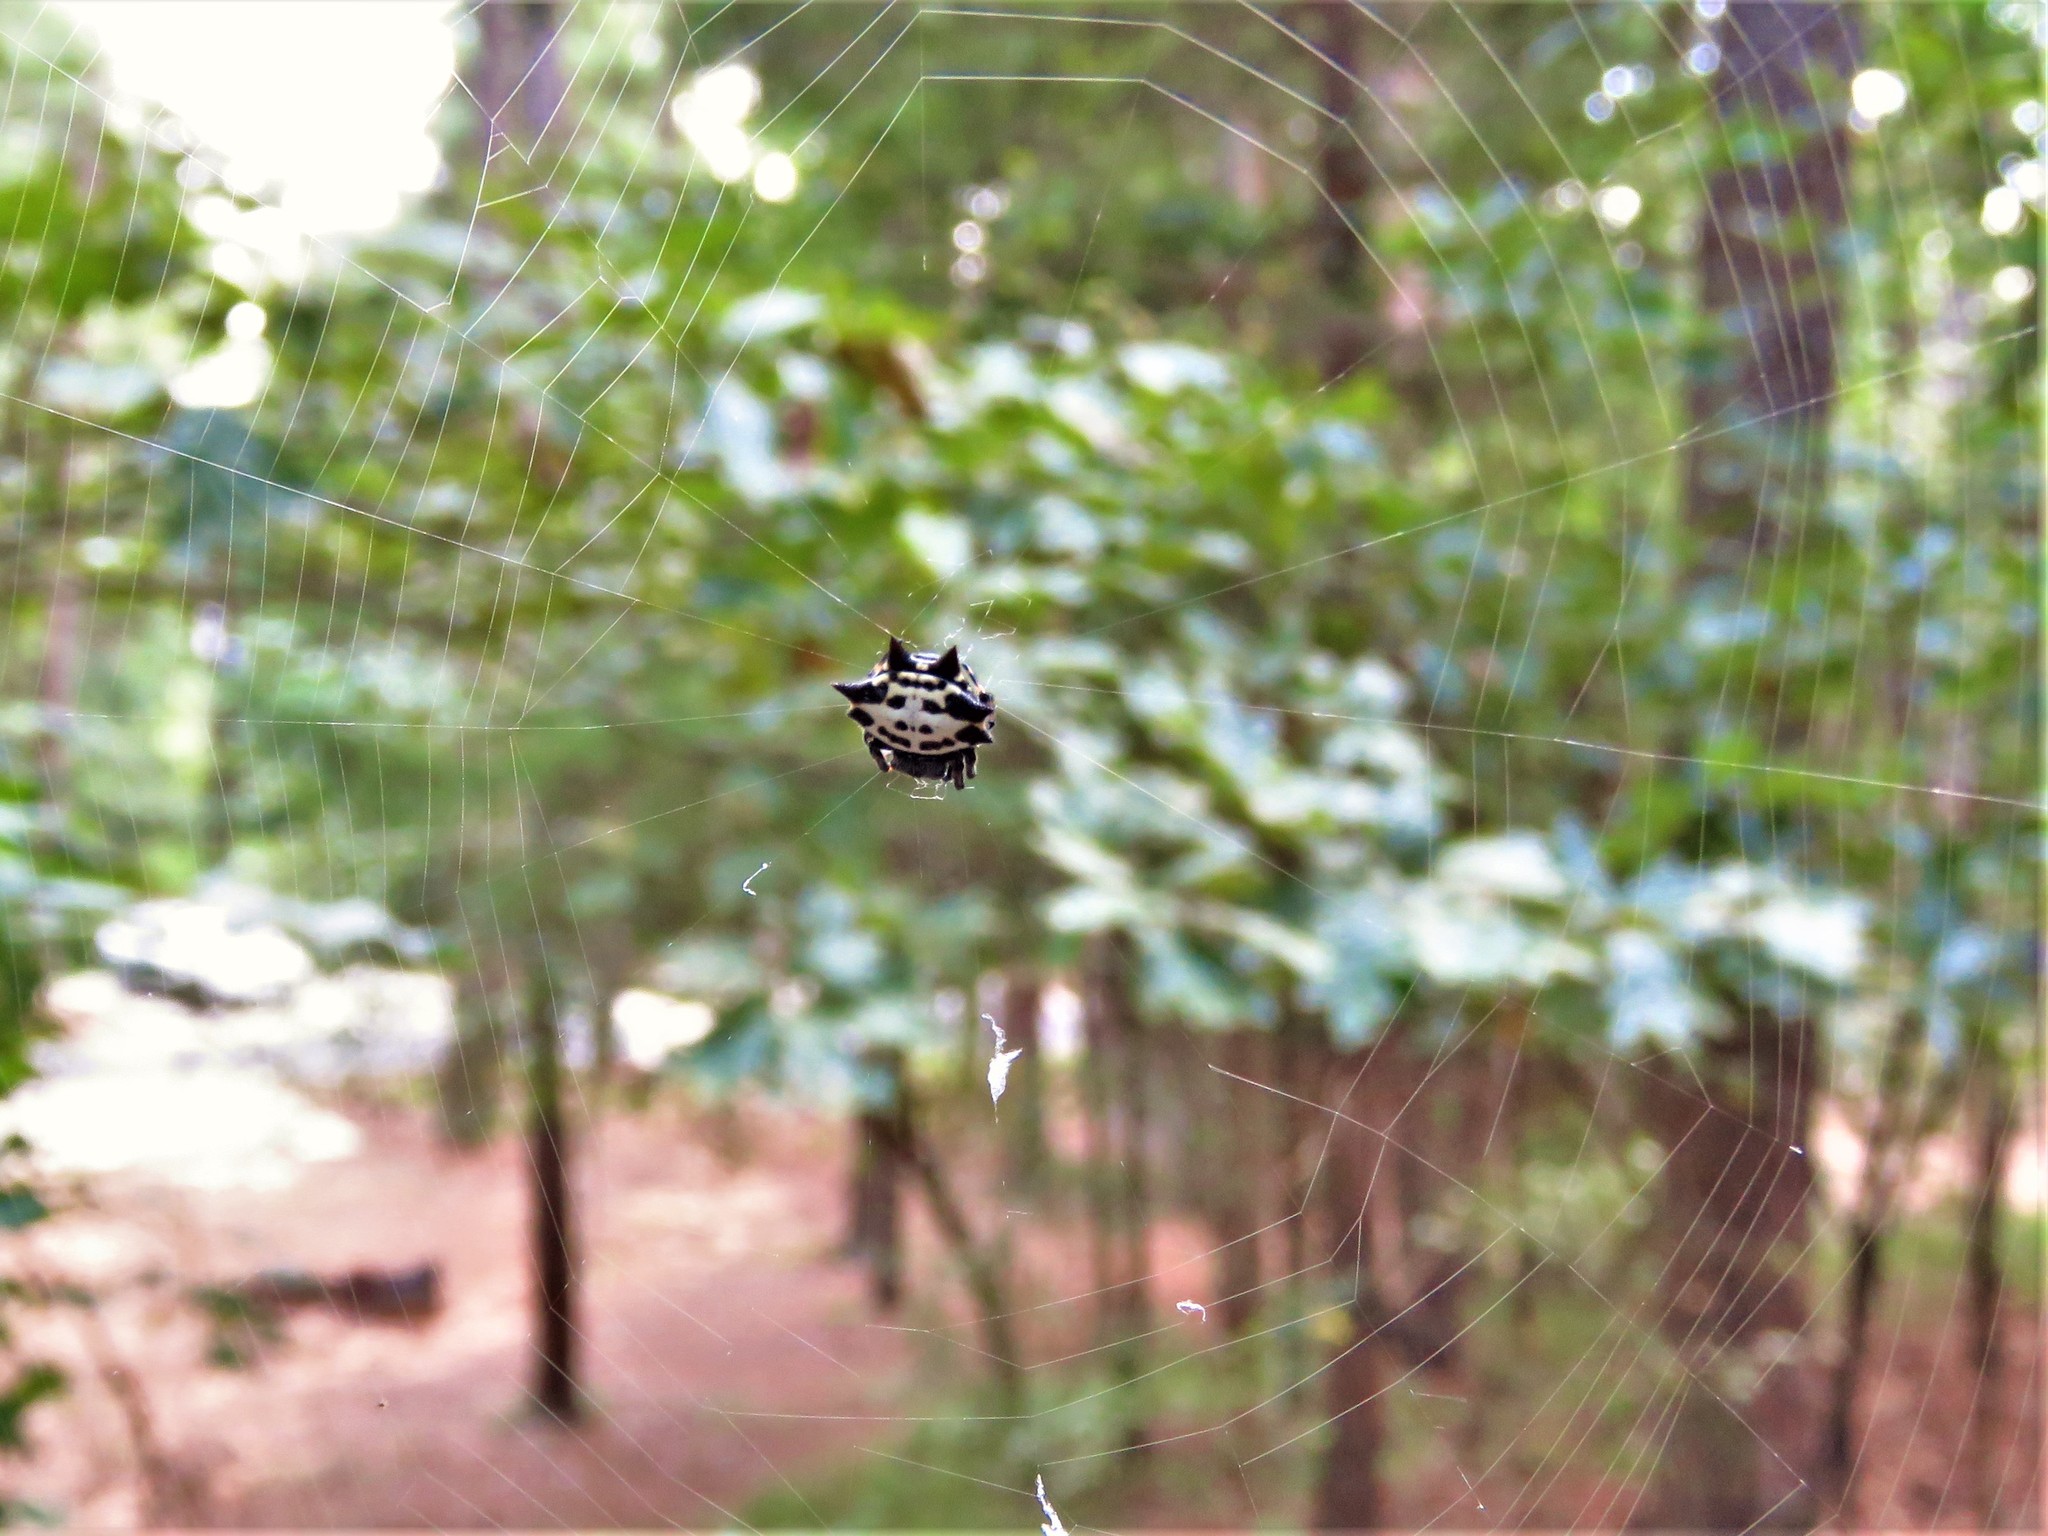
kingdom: Animalia
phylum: Arthropoda
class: Arachnida
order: Araneae
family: Araneidae
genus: Gasteracantha
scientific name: Gasteracantha cancriformis
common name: Orb weavers
